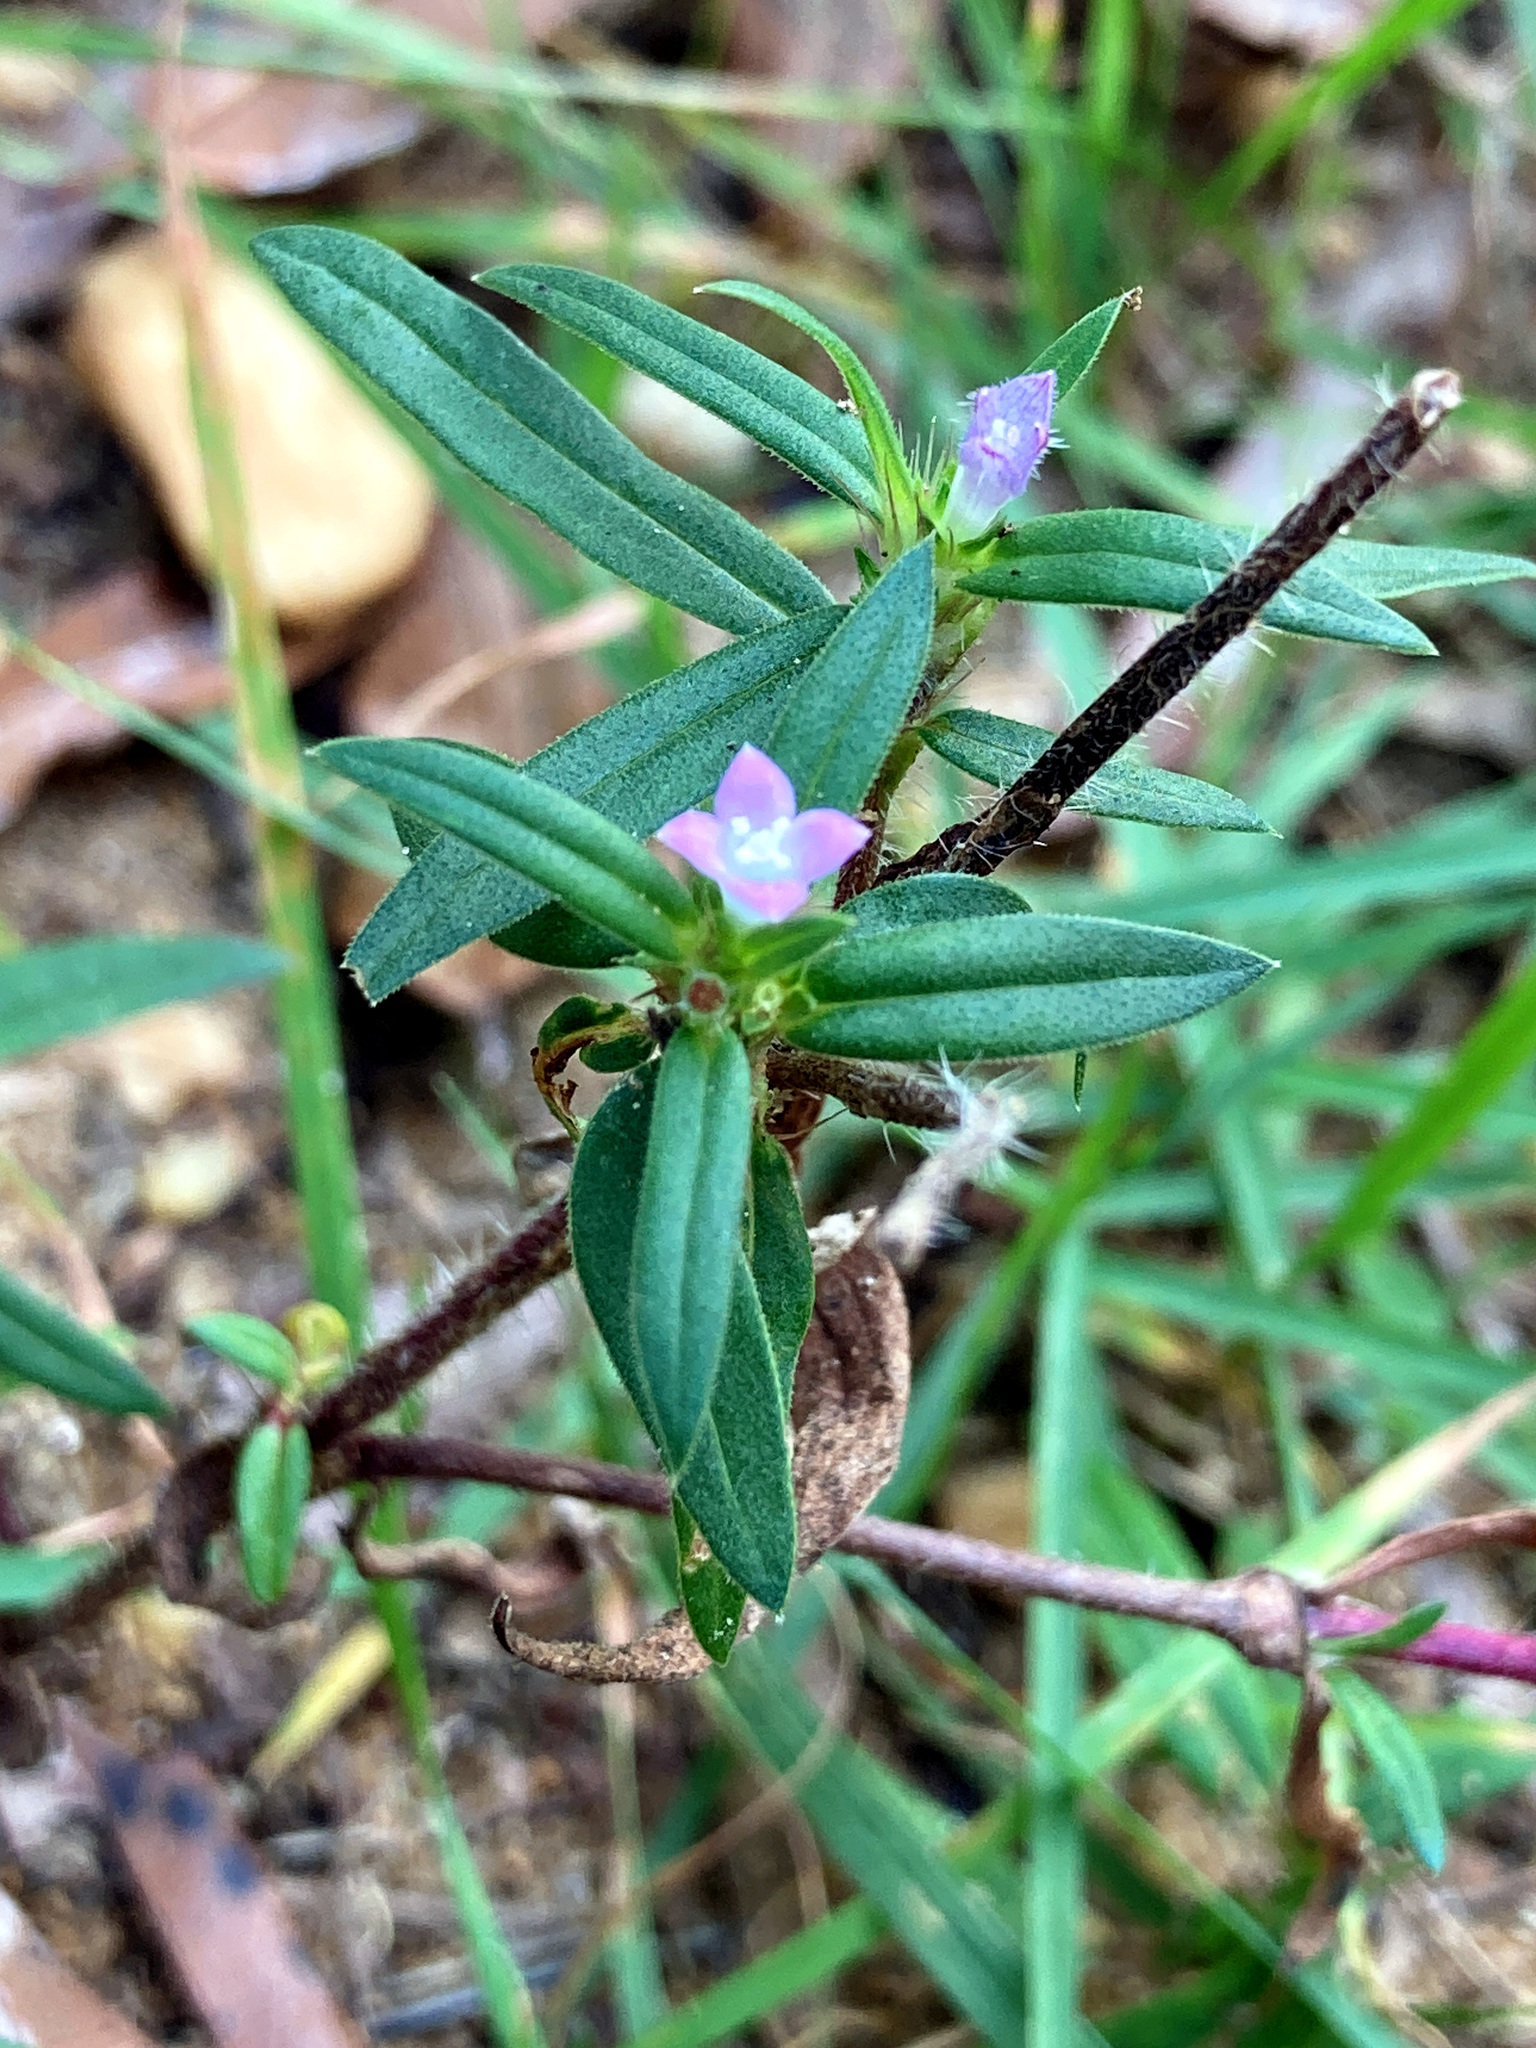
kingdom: Plantae
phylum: Tracheophyta
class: Magnoliopsida
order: Gentianales
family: Rubiaceae
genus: Hexasepalum
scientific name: Hexasepalum teres
